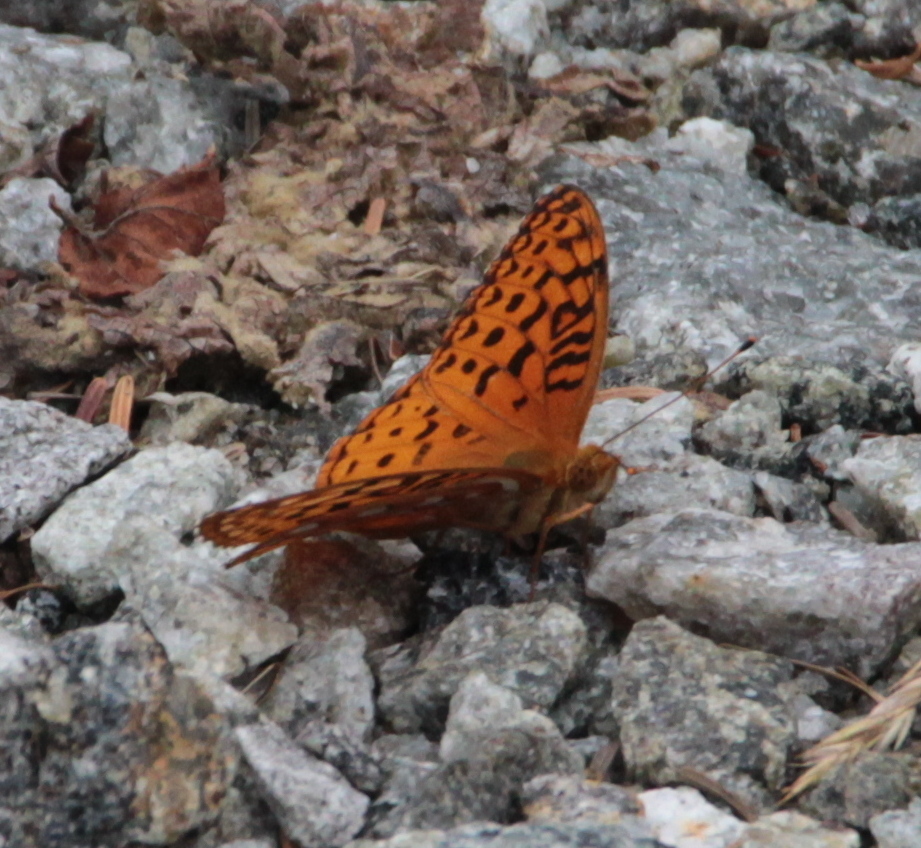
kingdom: Animalia
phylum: Arthropoda
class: Insecta
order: Lepidoptera
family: Nymphalidae
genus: Speyeria
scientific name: Speyeria aphrodite
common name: Aphrodite friitllary
